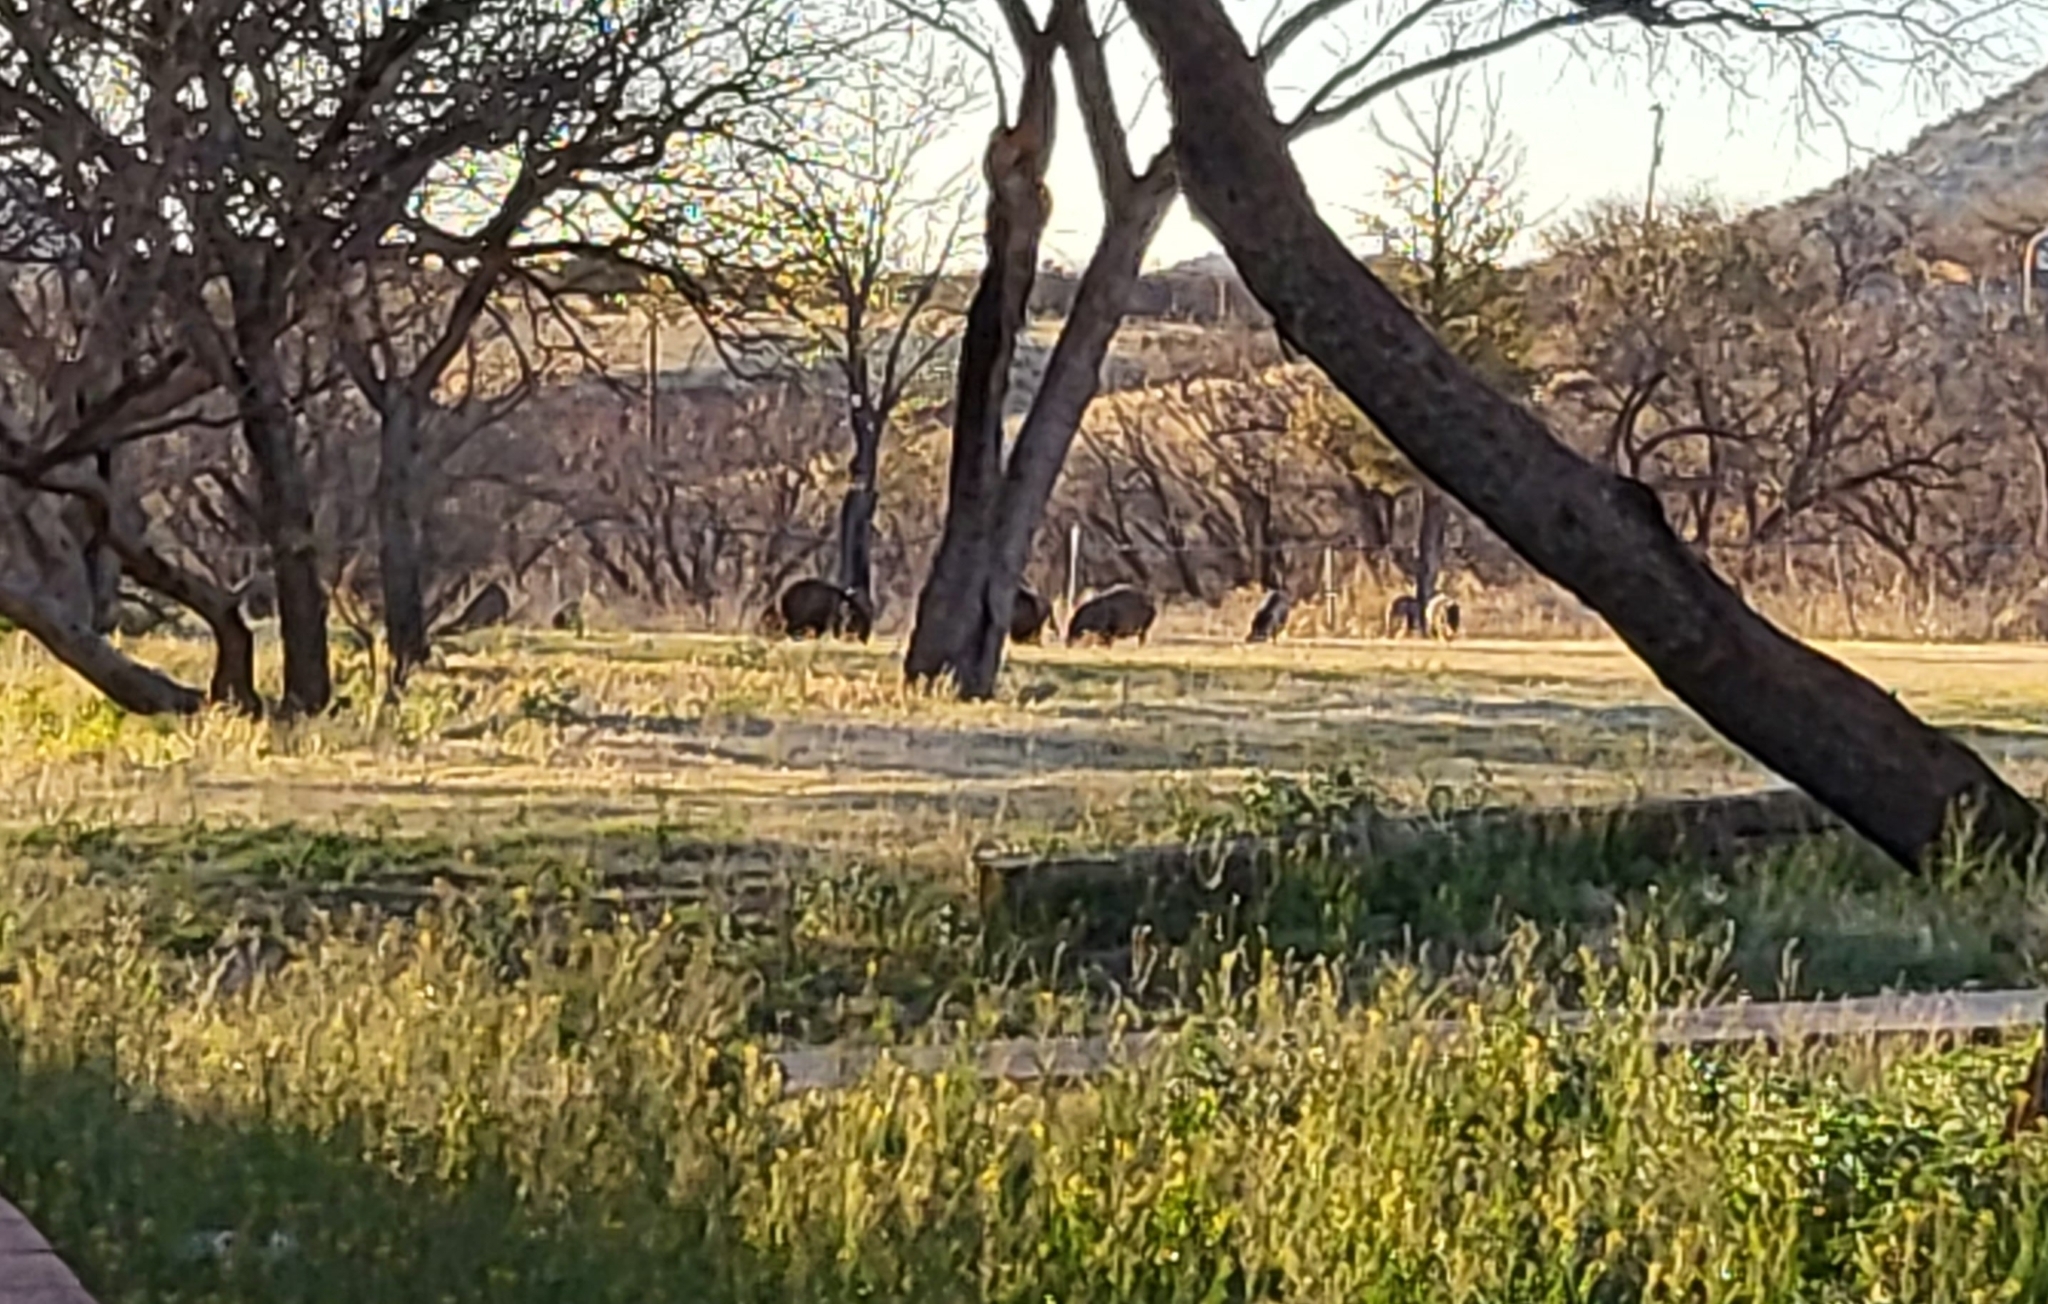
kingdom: Animalia
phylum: Chordata
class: Mammalia
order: Artiodactyla
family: Tayassuidae
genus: Pecari
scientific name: Pecari tajacu
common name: Collared peccary
